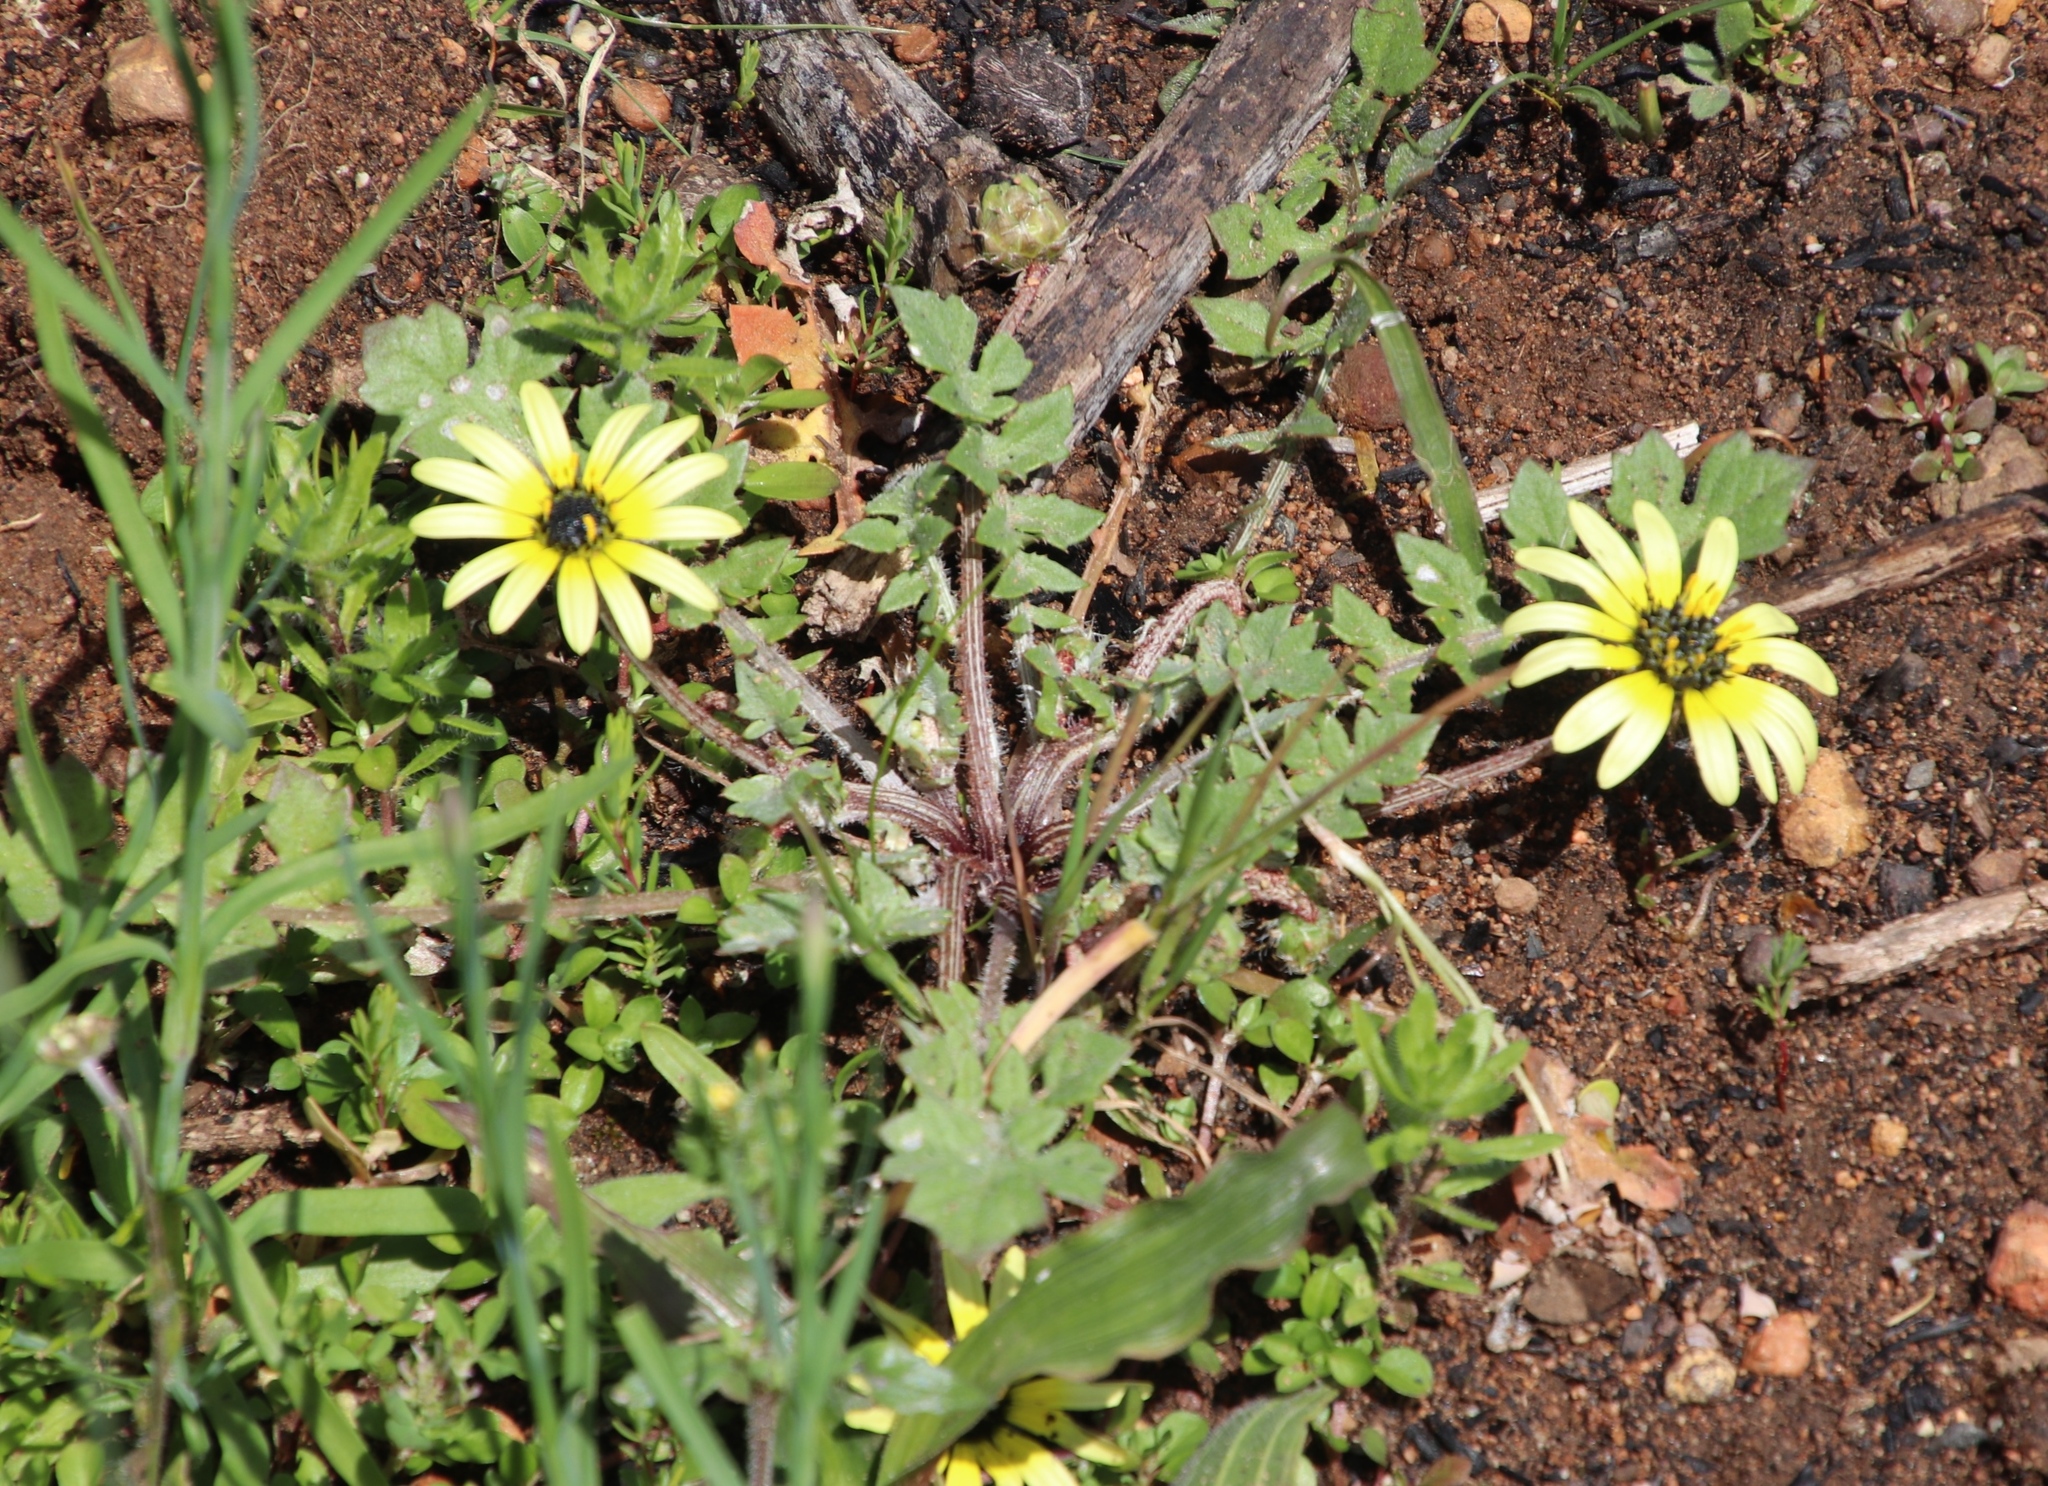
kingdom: Plantae
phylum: Tracheophyta
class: Magnoliopsida
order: Asterales
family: Asteraceae
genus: Arctotheca
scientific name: Arctotheca calendula
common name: Capeweed
